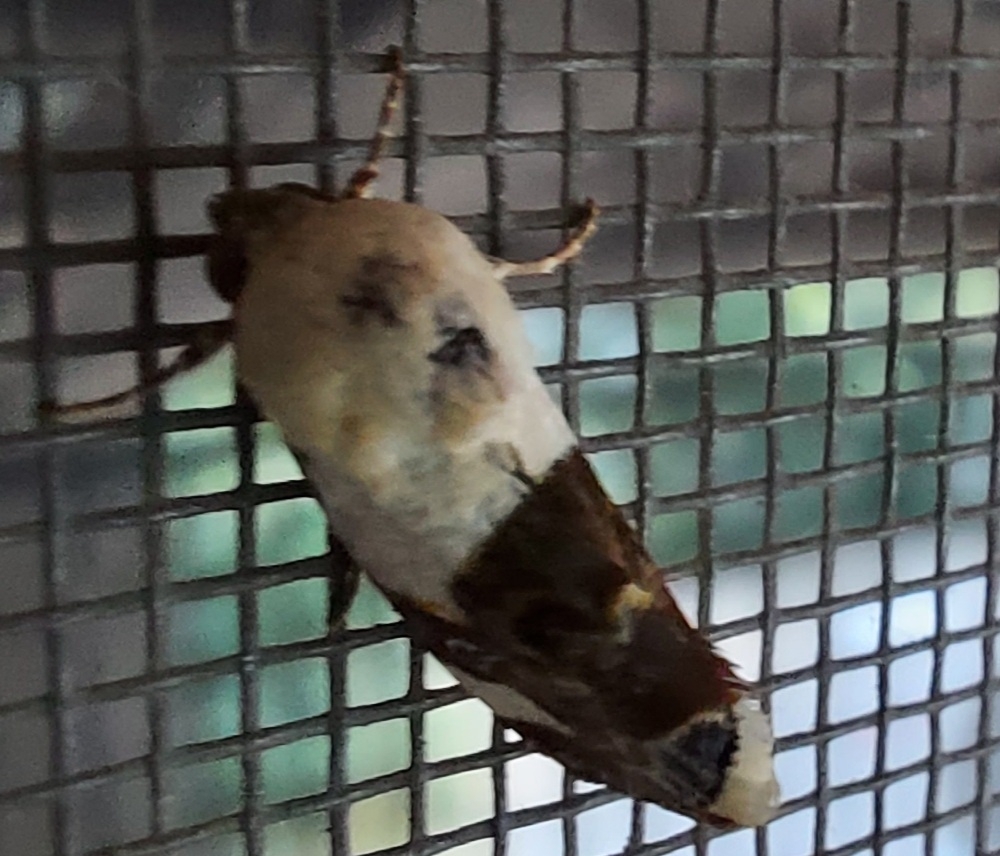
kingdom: Animalia
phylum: Arthropoda
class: Insecta
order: Lepidoptera
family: Noctuidae
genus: Acontia
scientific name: Acontia lucida
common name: Pale shoulder
